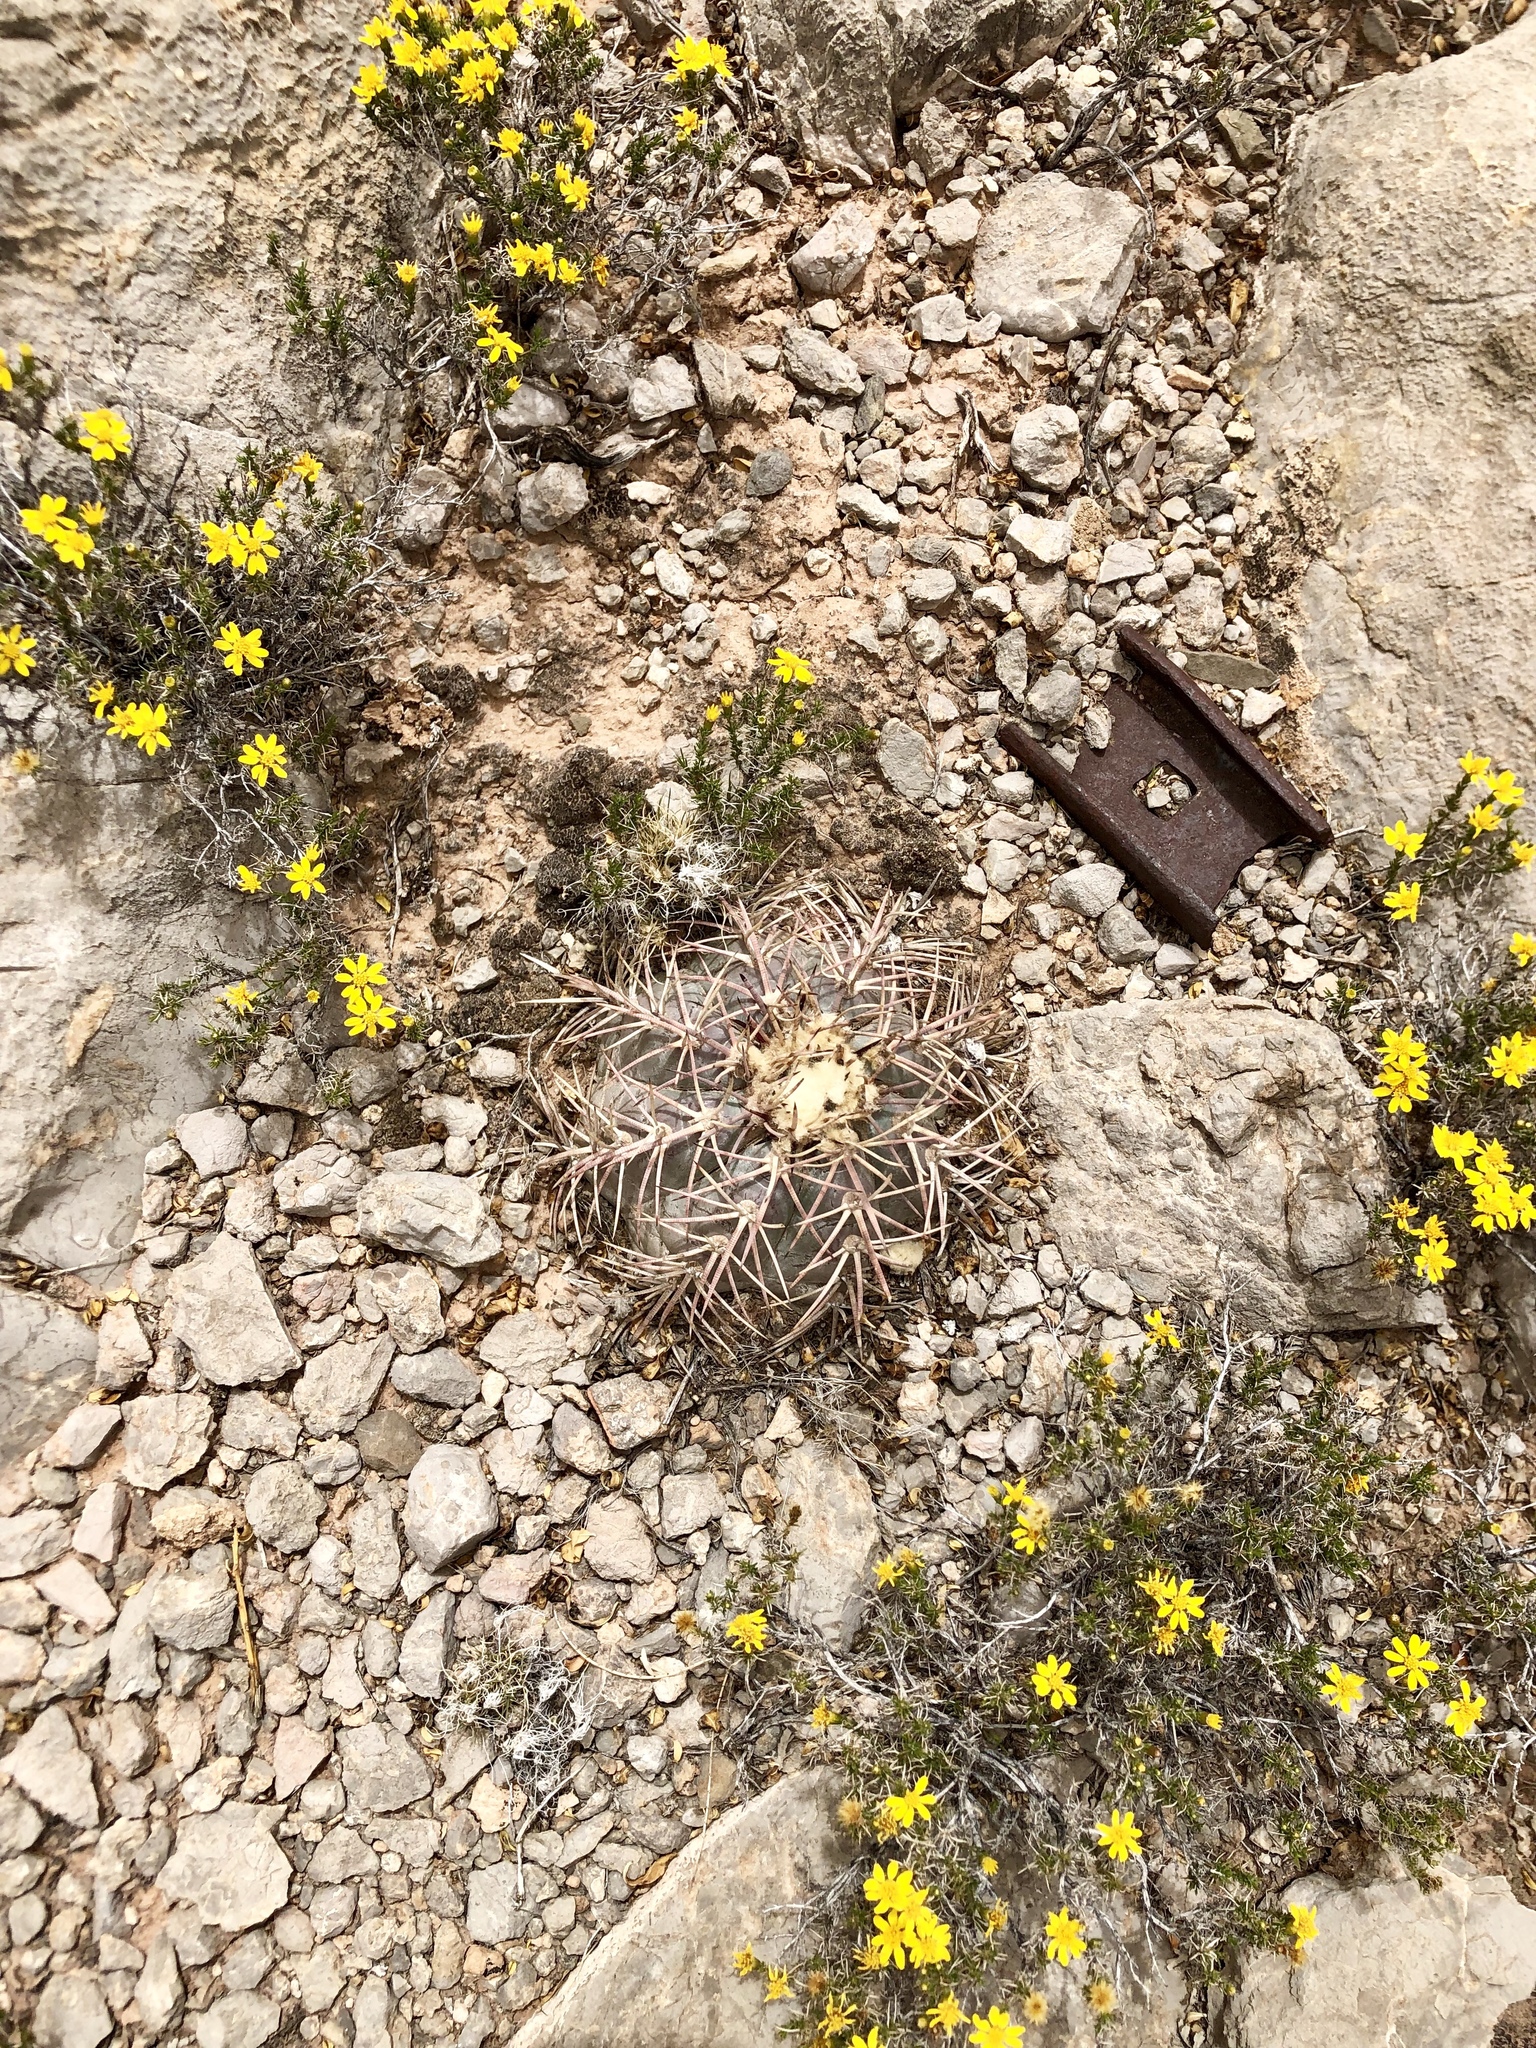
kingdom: Plantae
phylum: Tracheophyta
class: Magnoliopsida
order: Caryophyllales
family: Cactaceae
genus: Echinocactus
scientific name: Echinocactus horizonthalonius
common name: Devilshead
